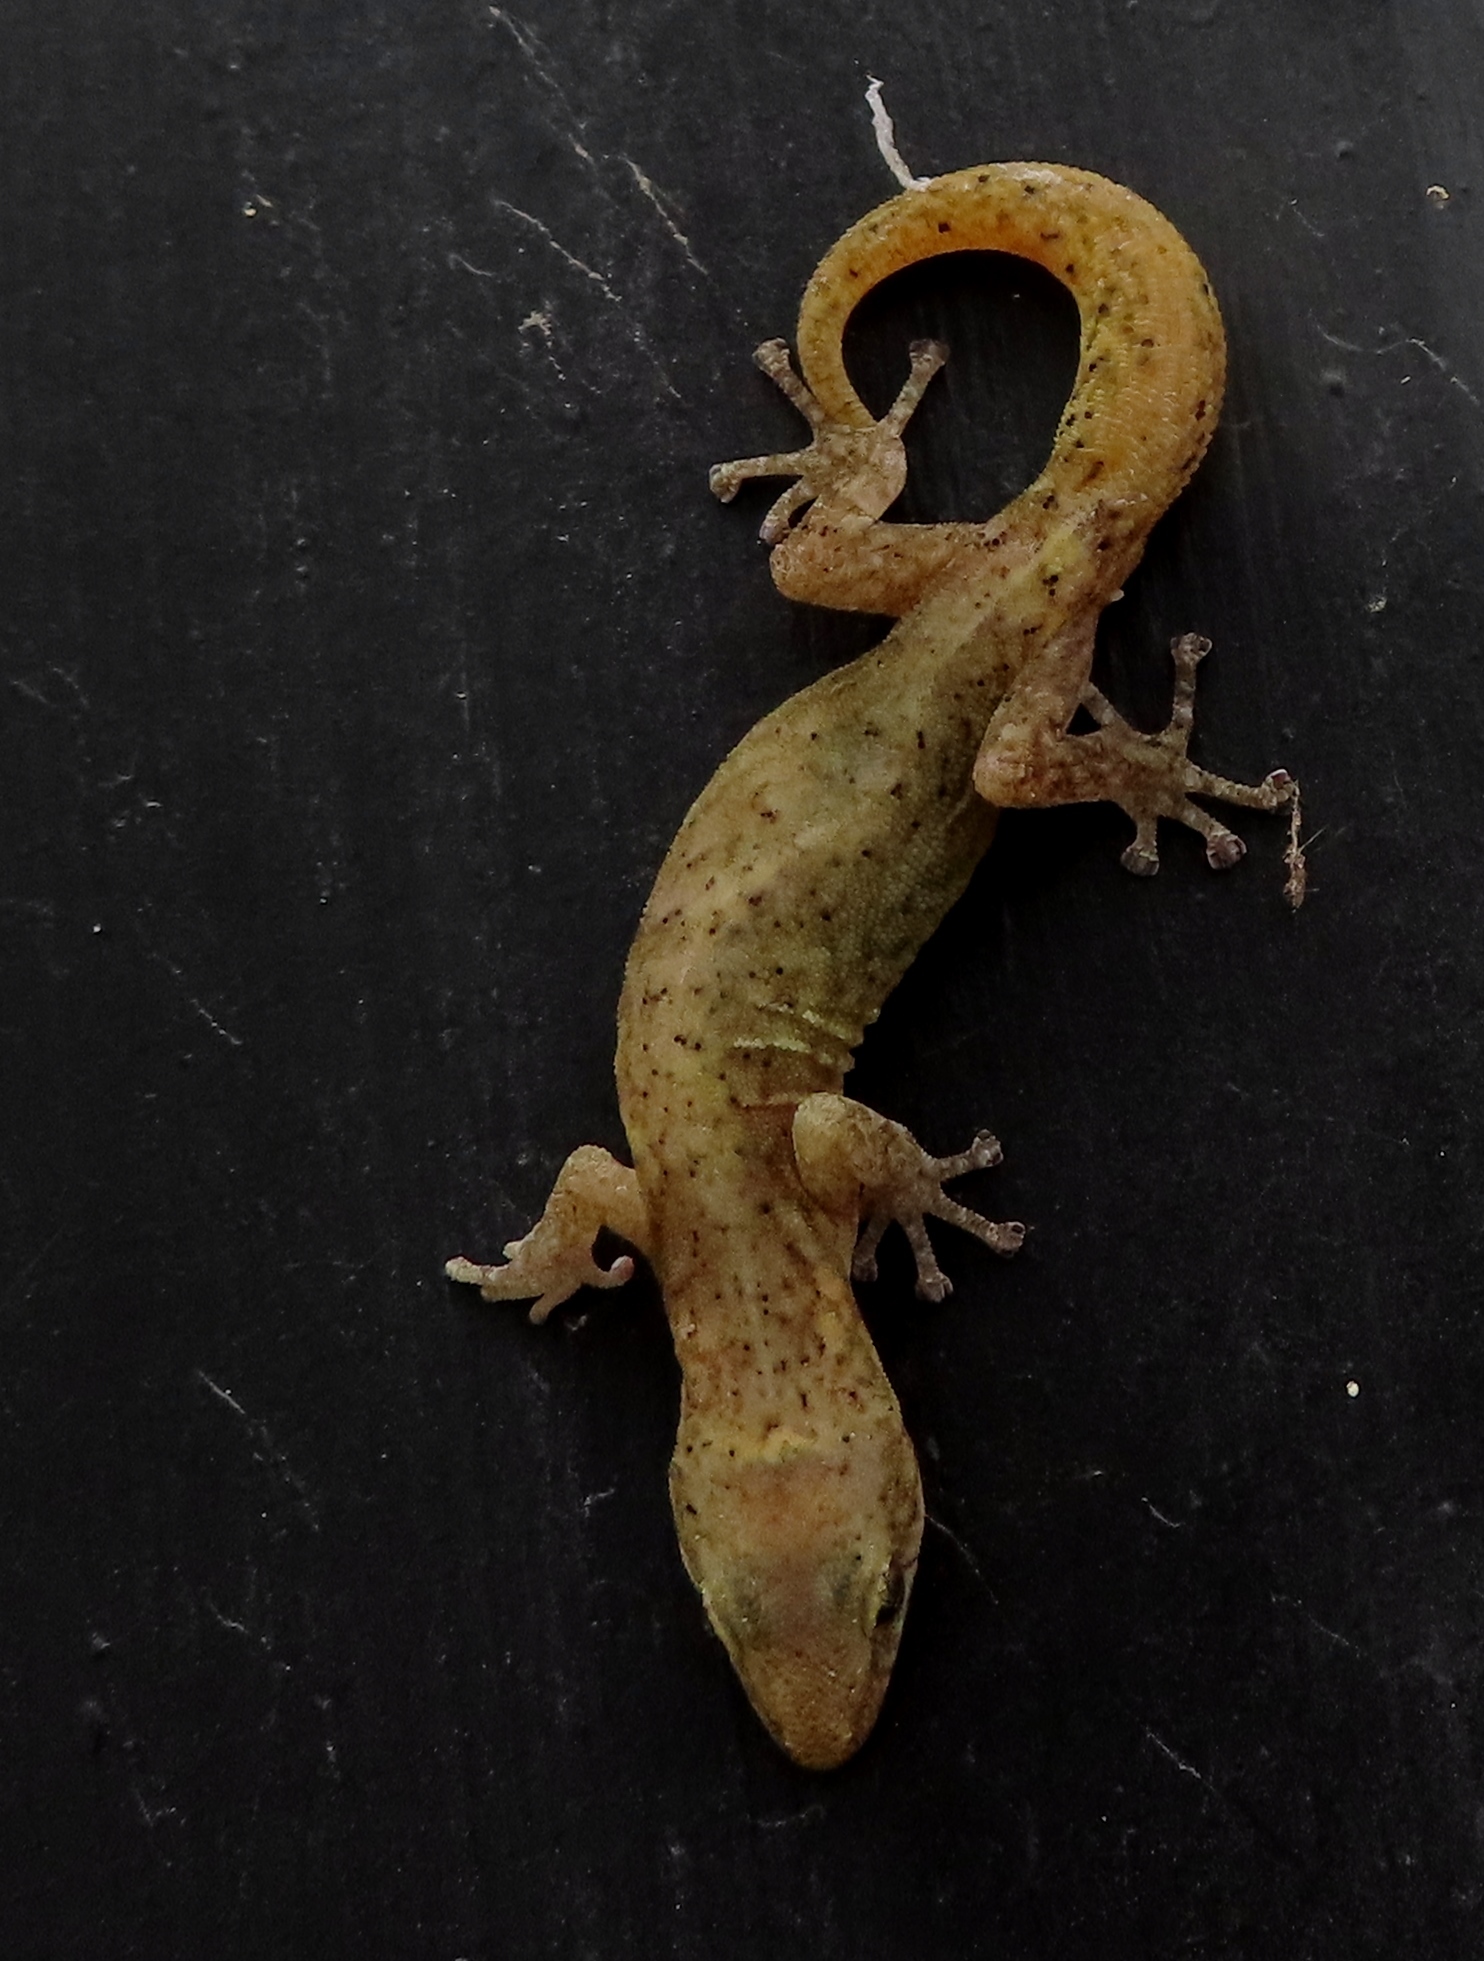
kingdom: Animalia
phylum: Chordata
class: Squamata
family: Gekkonidae
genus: Afrogecko
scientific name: Afrogecko porphyreus
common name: Marbled leaf-toed gecko
